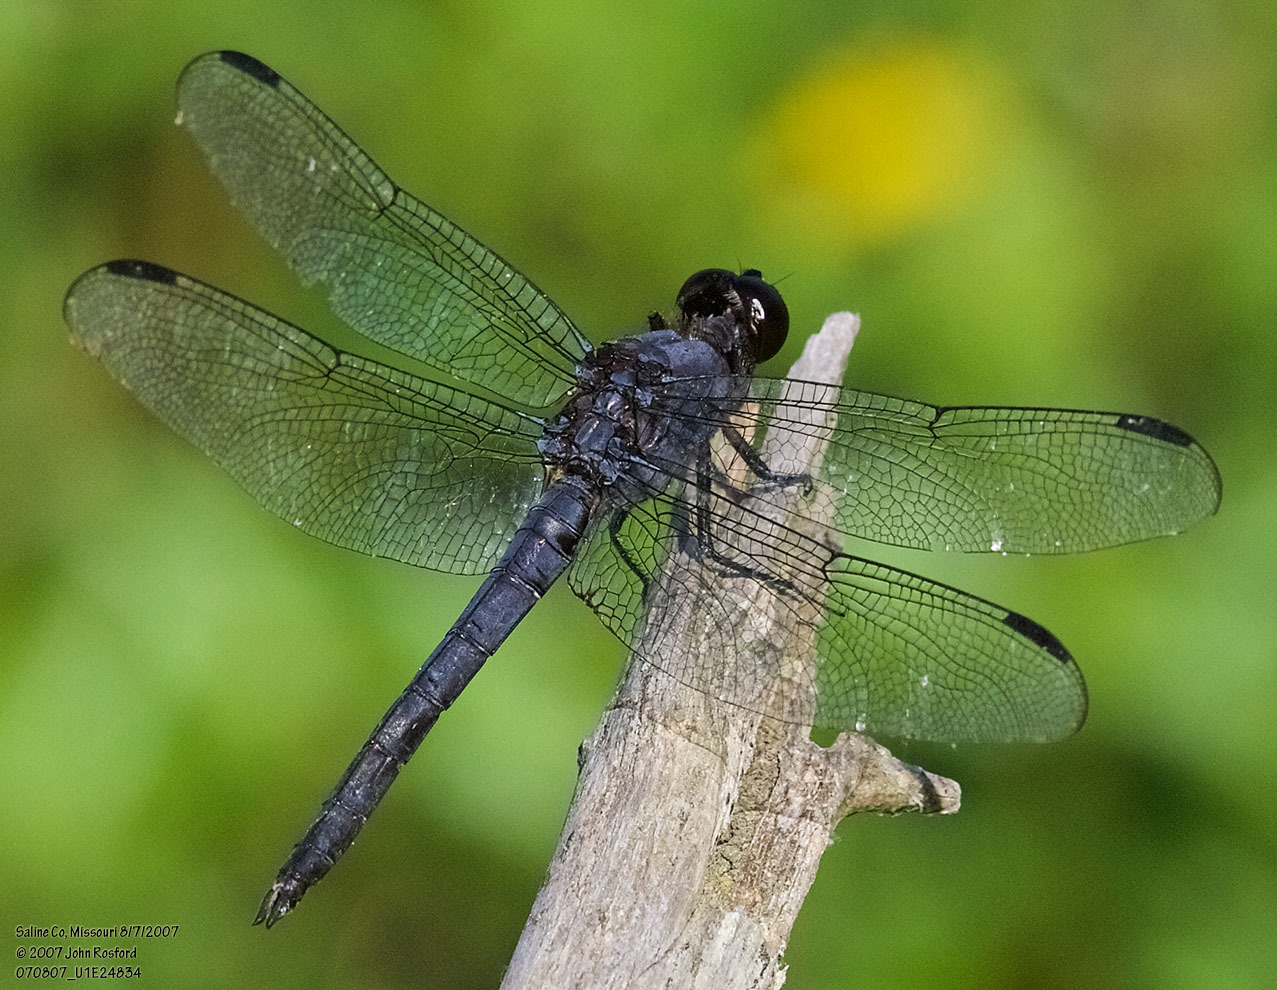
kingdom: Animalia
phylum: Arthropoda
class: Insecta
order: Odonata
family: Libellulidae
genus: Libellula
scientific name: Libellula incesta
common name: Slaty skimmer
